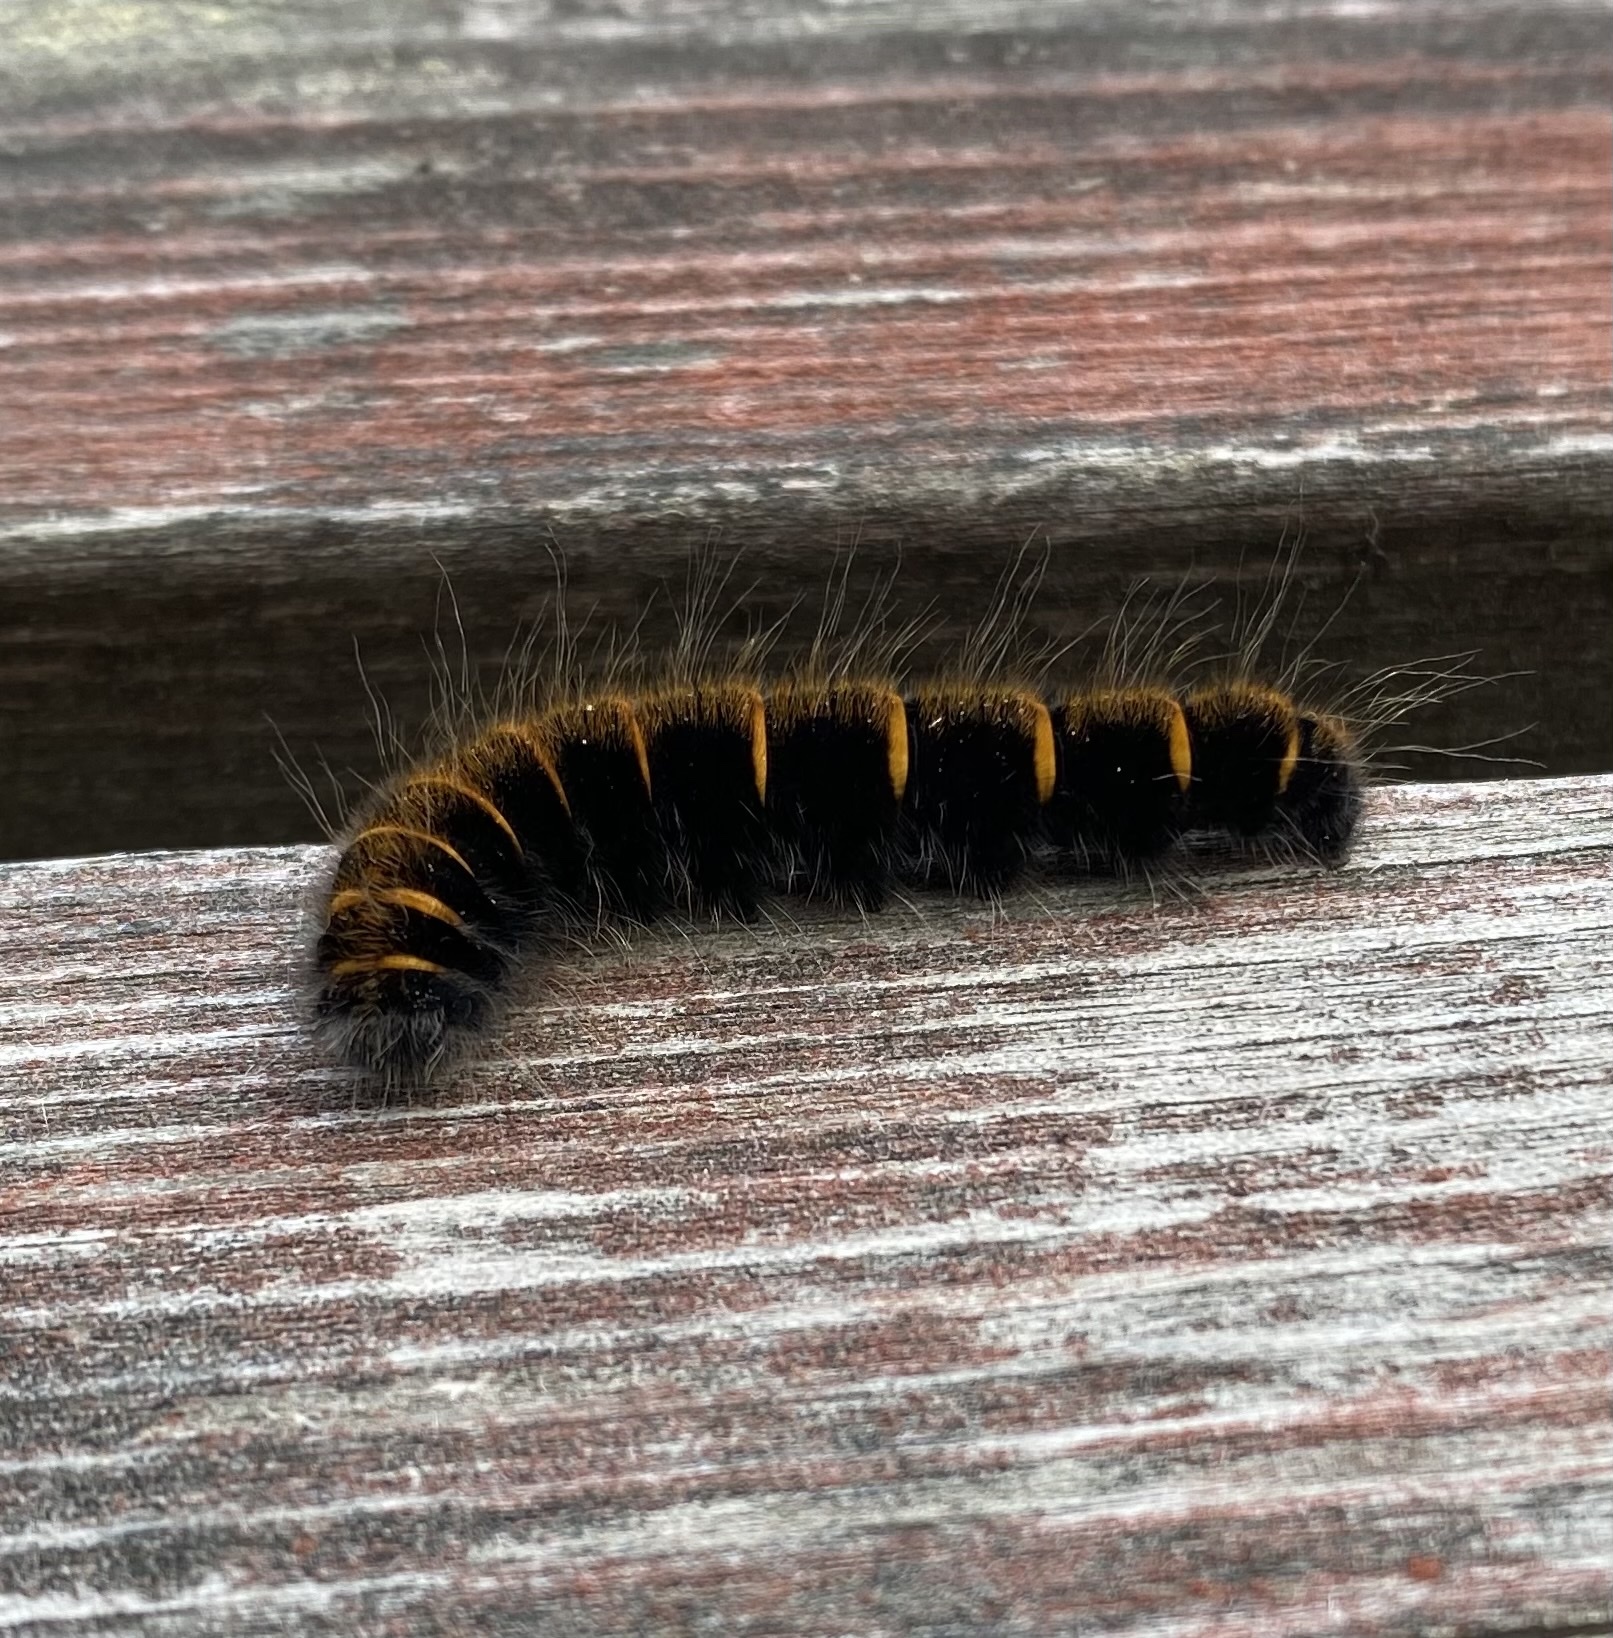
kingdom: Animalia
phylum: Arthropoda
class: Insecta
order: Lepidoptera
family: Lasiocampidae
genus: Macrothylacia
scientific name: Macrothylacia rubi
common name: Fox moth
